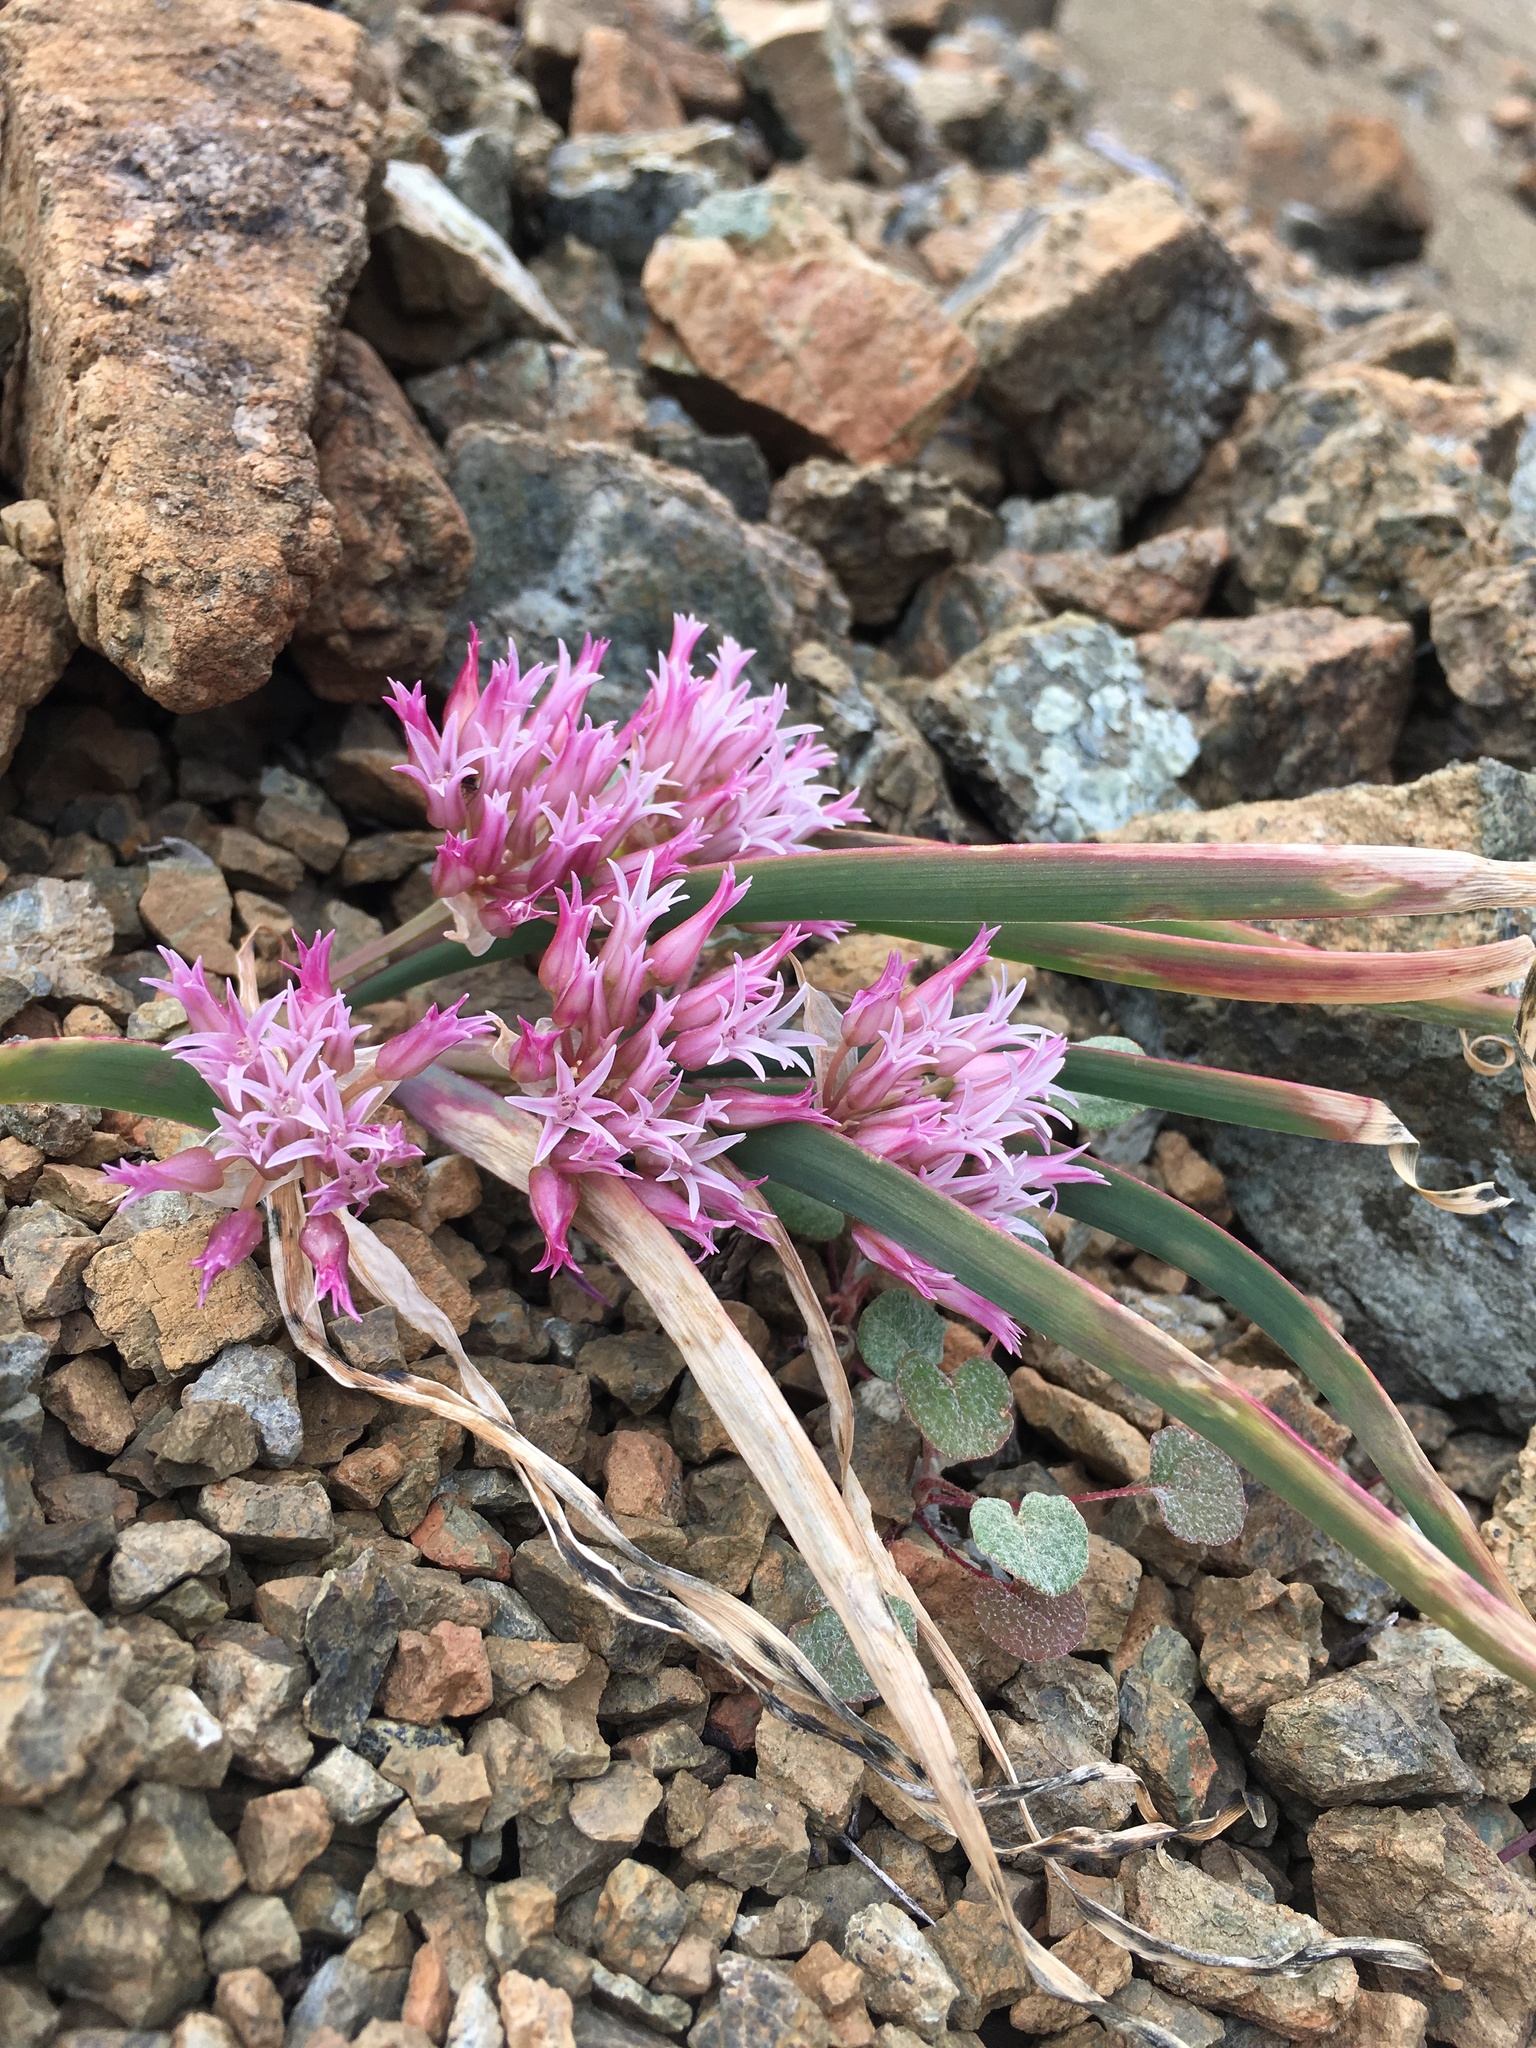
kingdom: Plantae
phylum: Tracheophyta
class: Liliopsida
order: Asparagales
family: Amaryllidaceae
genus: Allium
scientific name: Allium falcifolium
